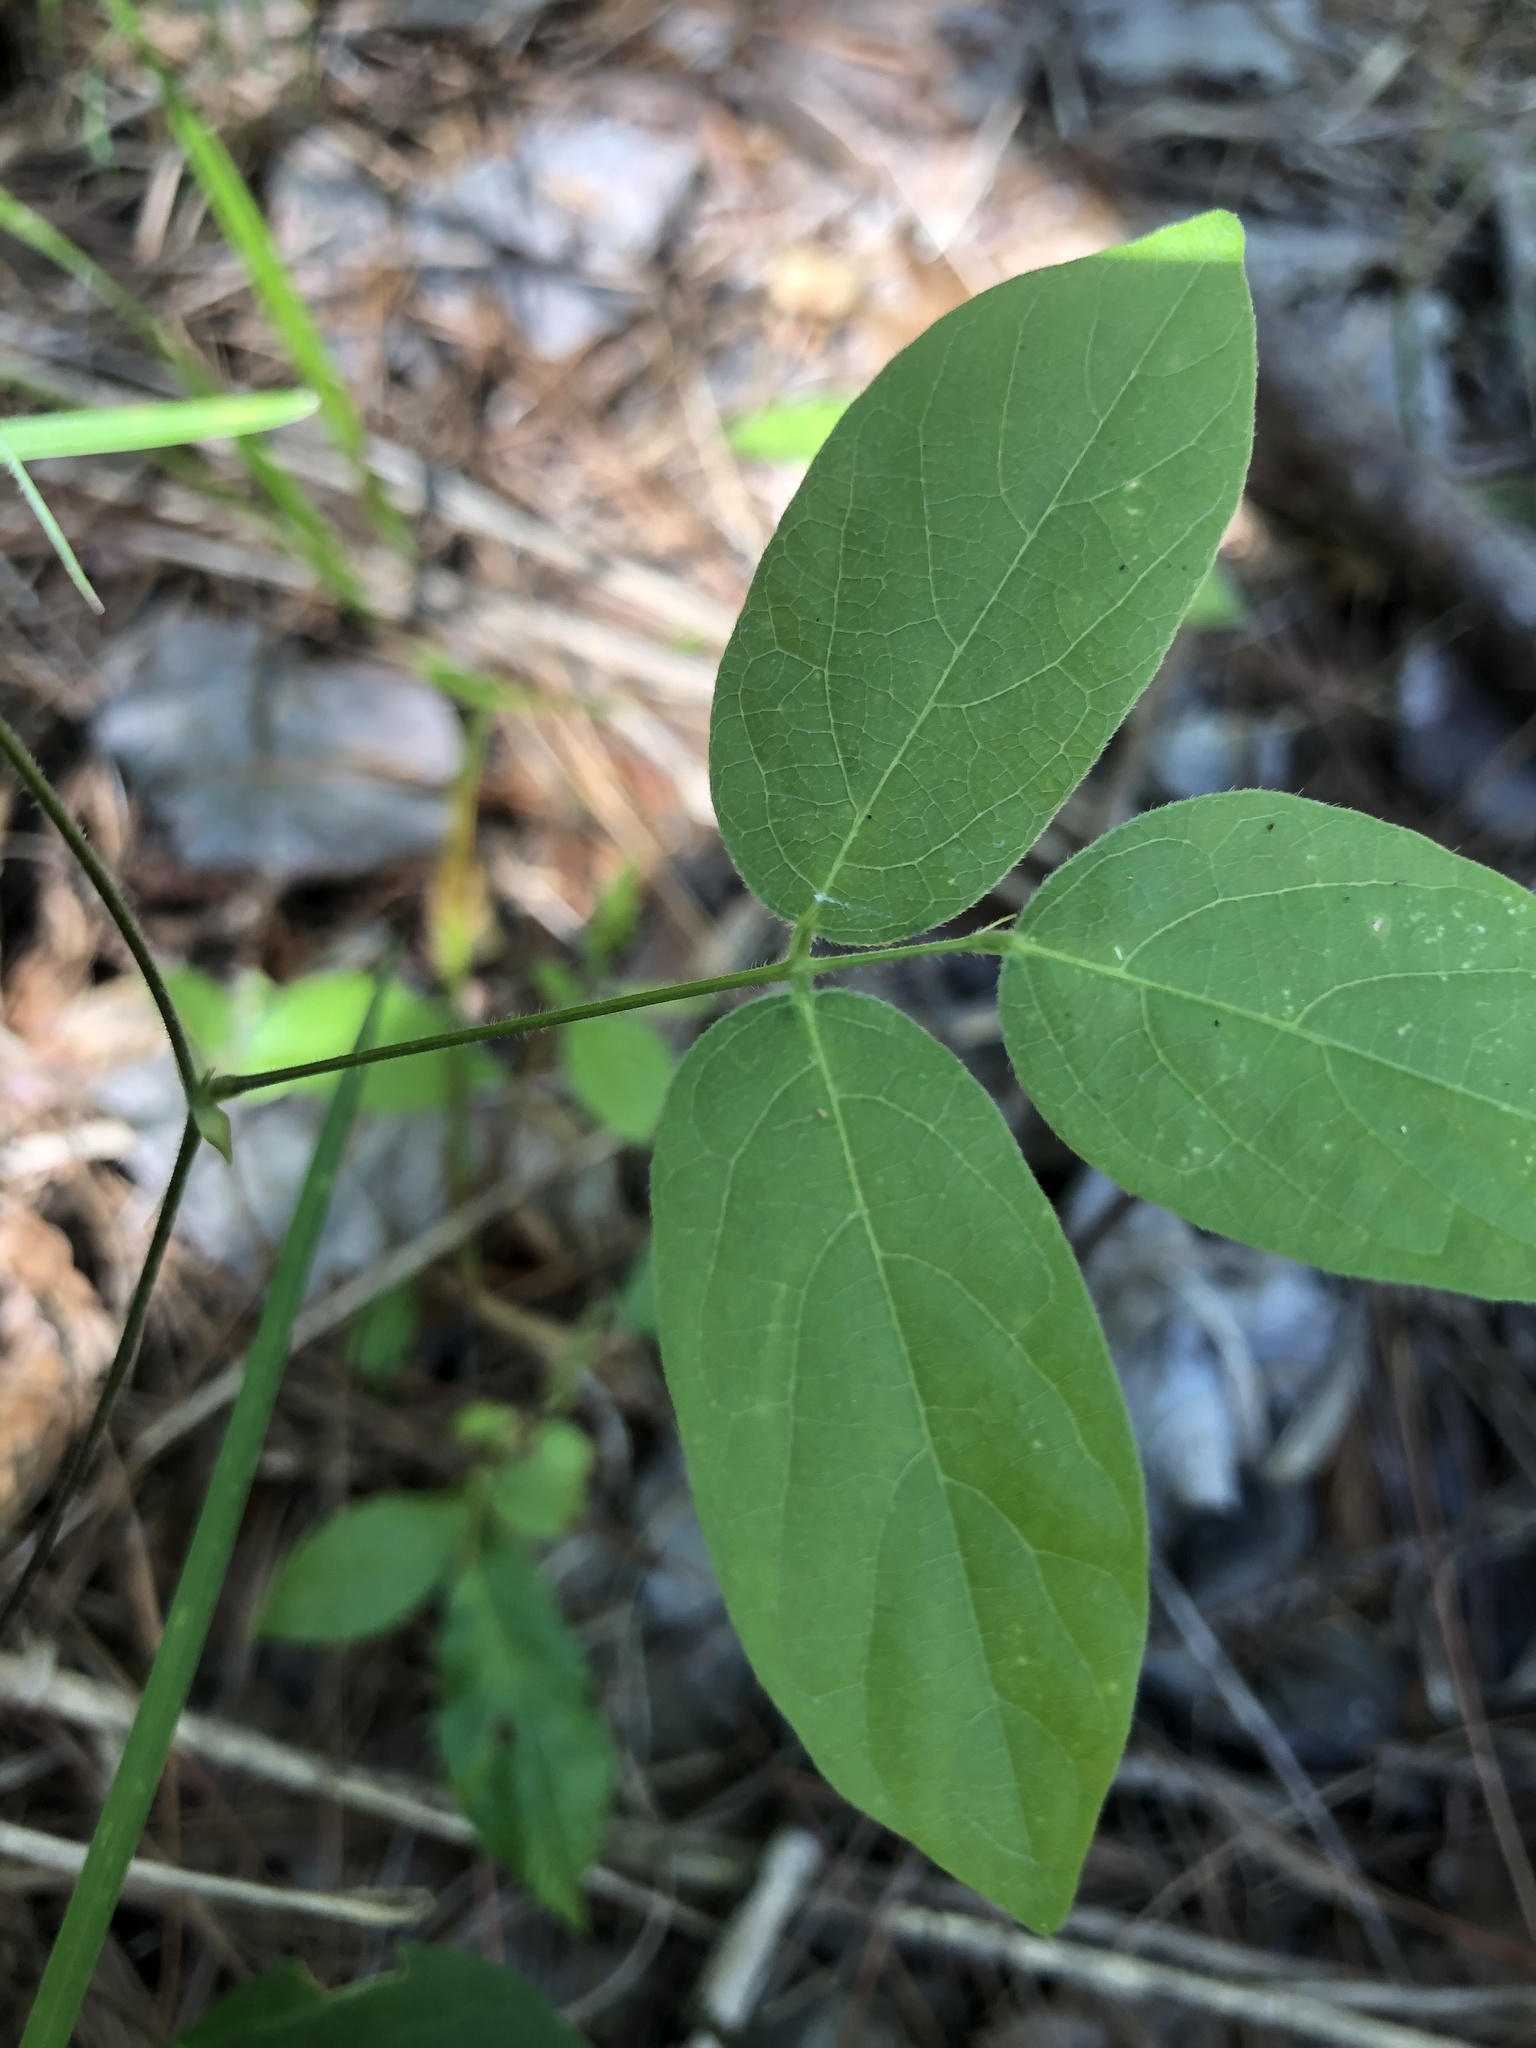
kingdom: Plantae
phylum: Tracheophyta
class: Magnoliopsida
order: Fabales
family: Fabaceae
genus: Centrosema
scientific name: Centrosema virginianum
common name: Butterfly-pea
